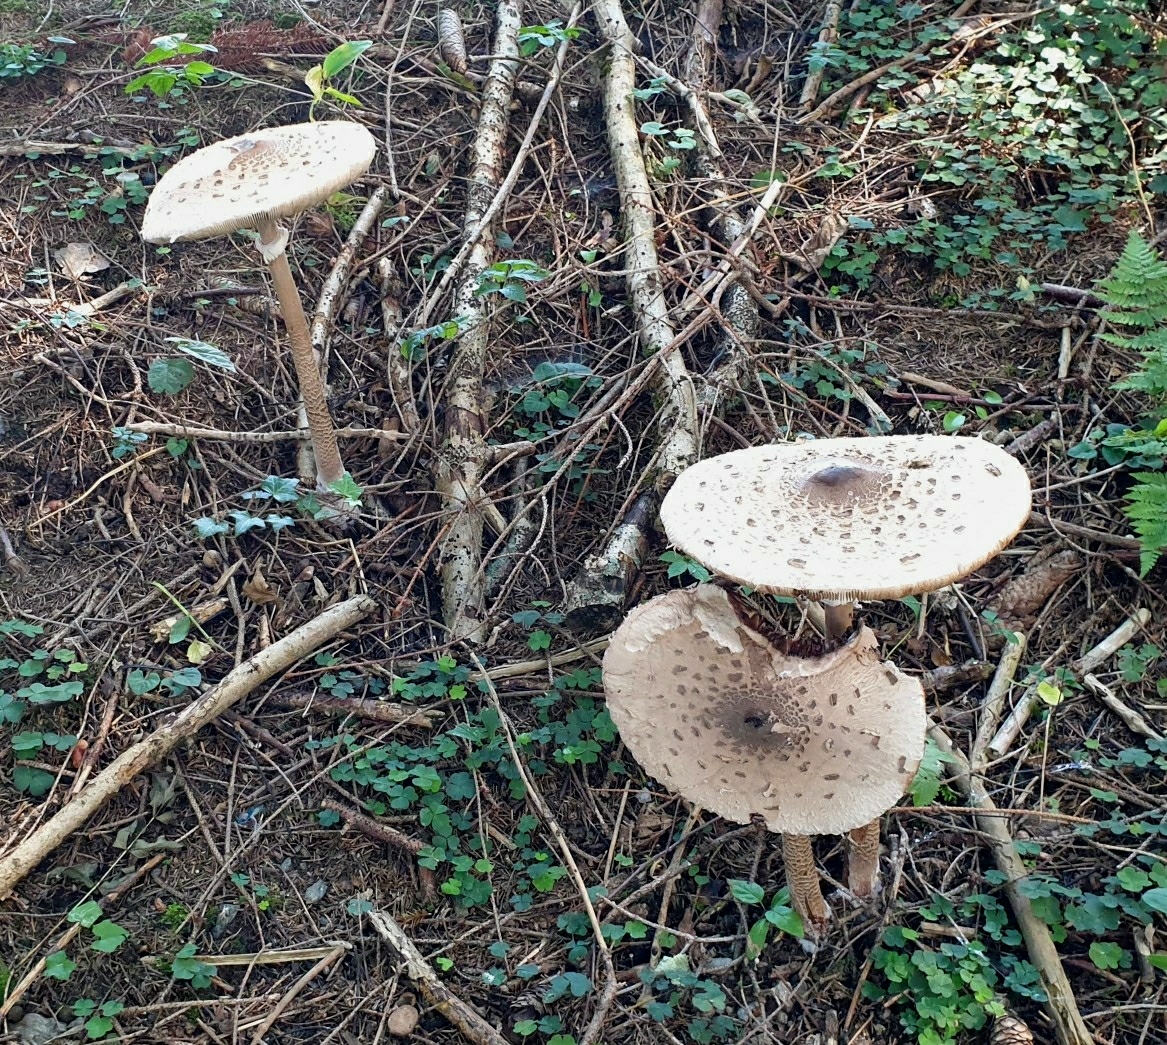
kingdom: Fungi
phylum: Basidiomycota
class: Agaricomycetes
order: Agaricales
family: Agaricaceae
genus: Macrolepiota
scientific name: Macrolepiota procera
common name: Parasol
